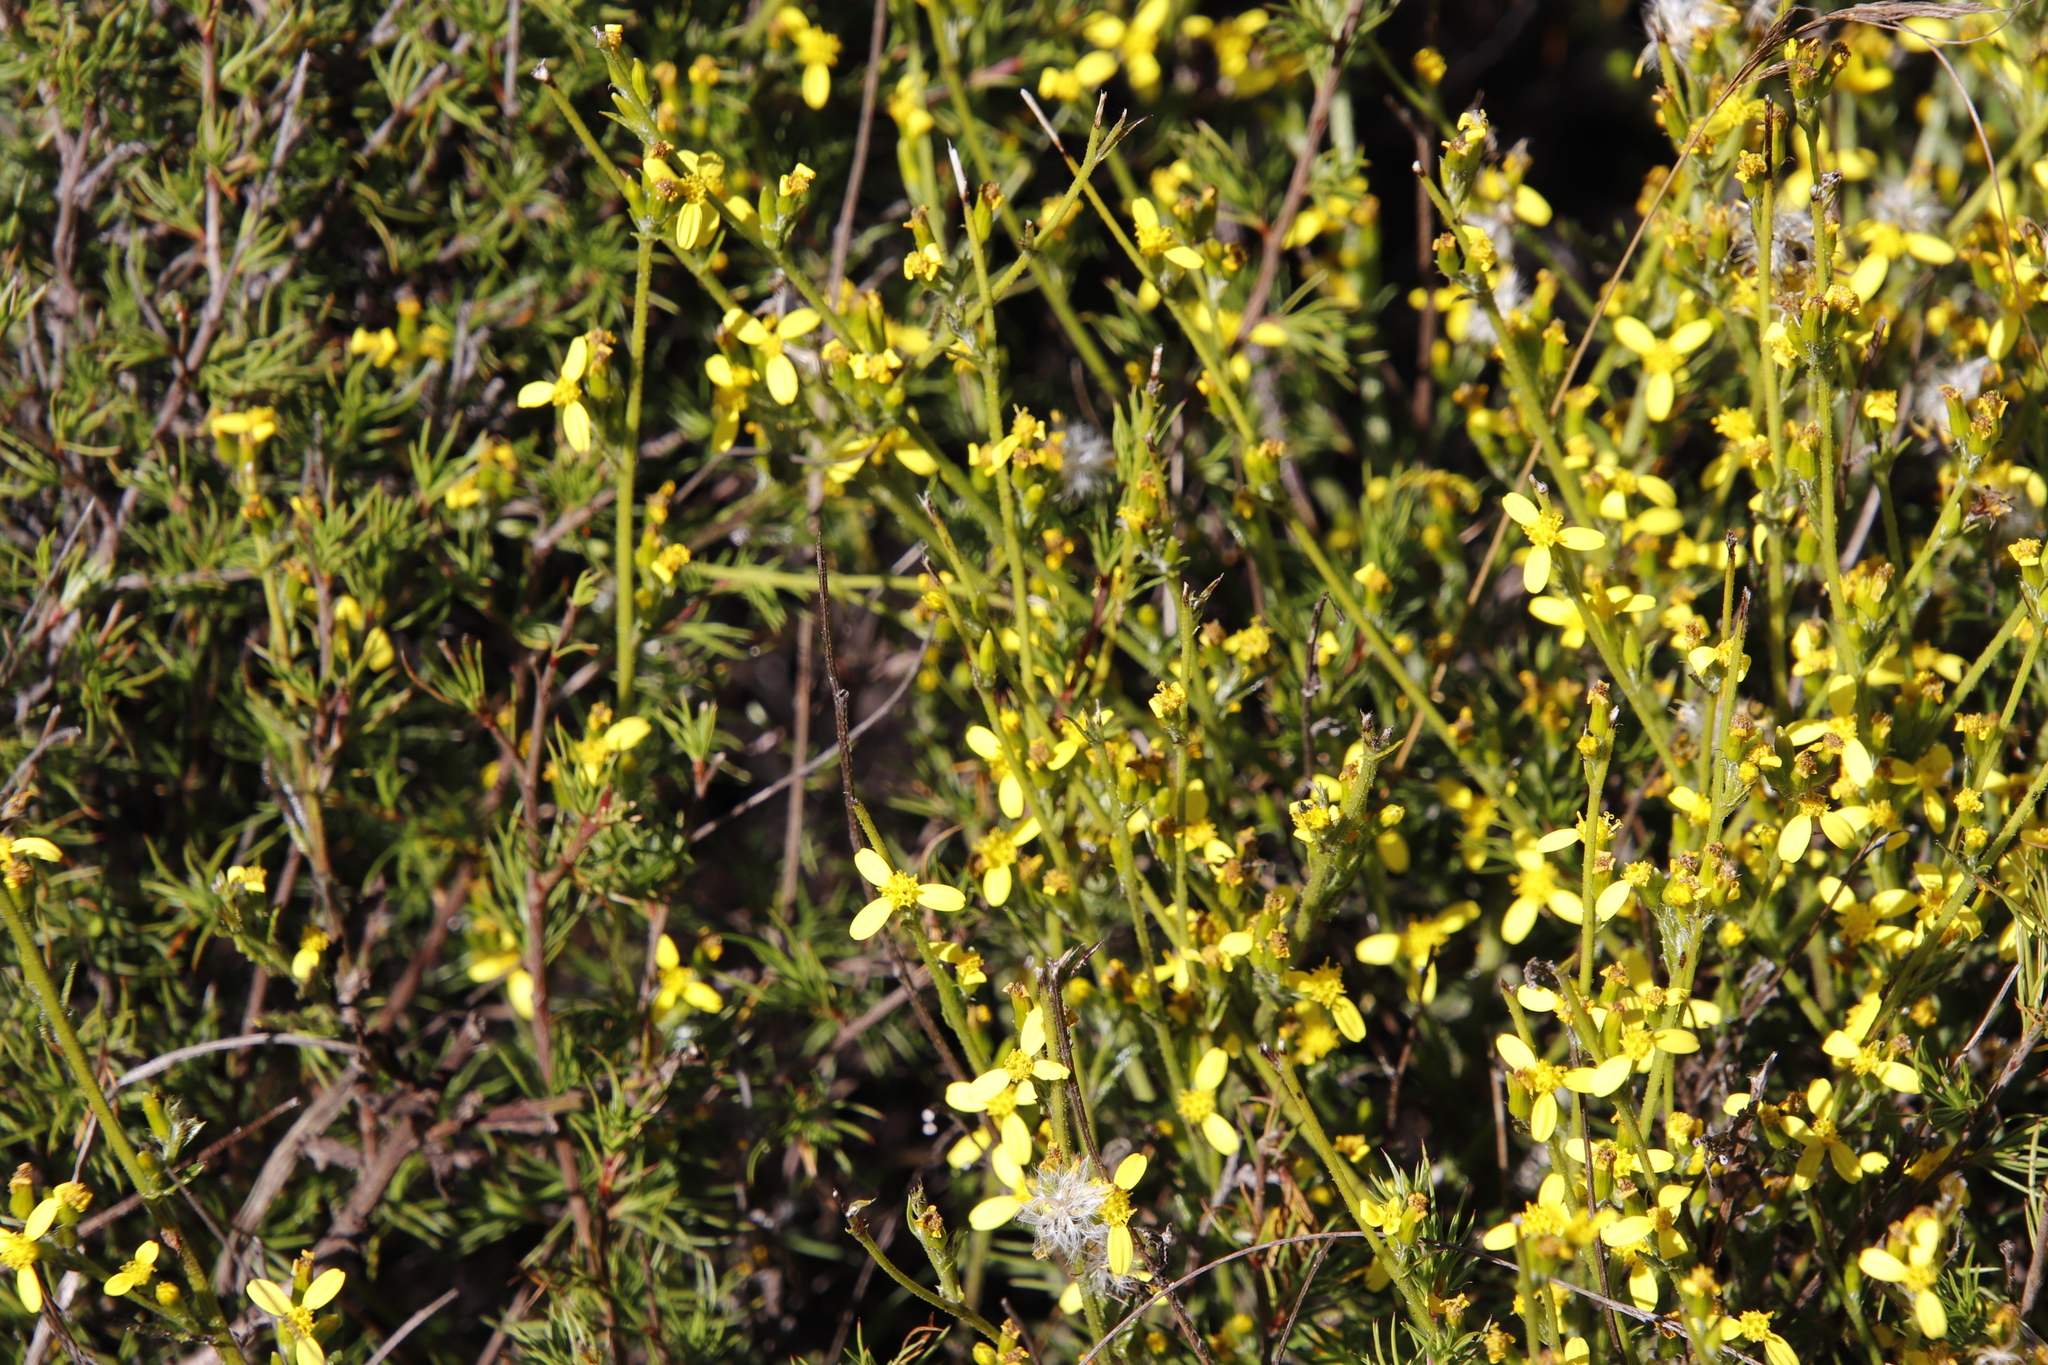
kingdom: Plantae
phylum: Tracheophyta
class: Magnoliopsida
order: Asterales
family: Asteraceae
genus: Senecio
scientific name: Senecio pubigerus
